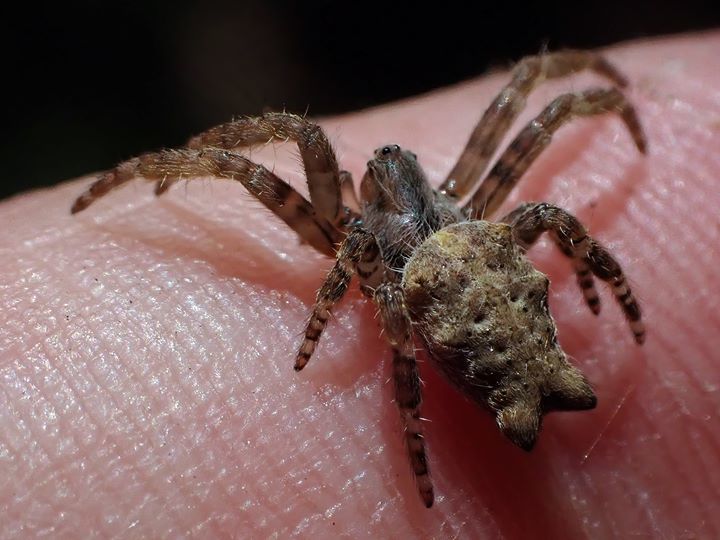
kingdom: Animalia
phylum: Arthropoda
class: Arachnida
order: Araneae
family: Araneidae
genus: Cyrtophora
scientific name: Cyrtophora citricola
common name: Orb weavers
